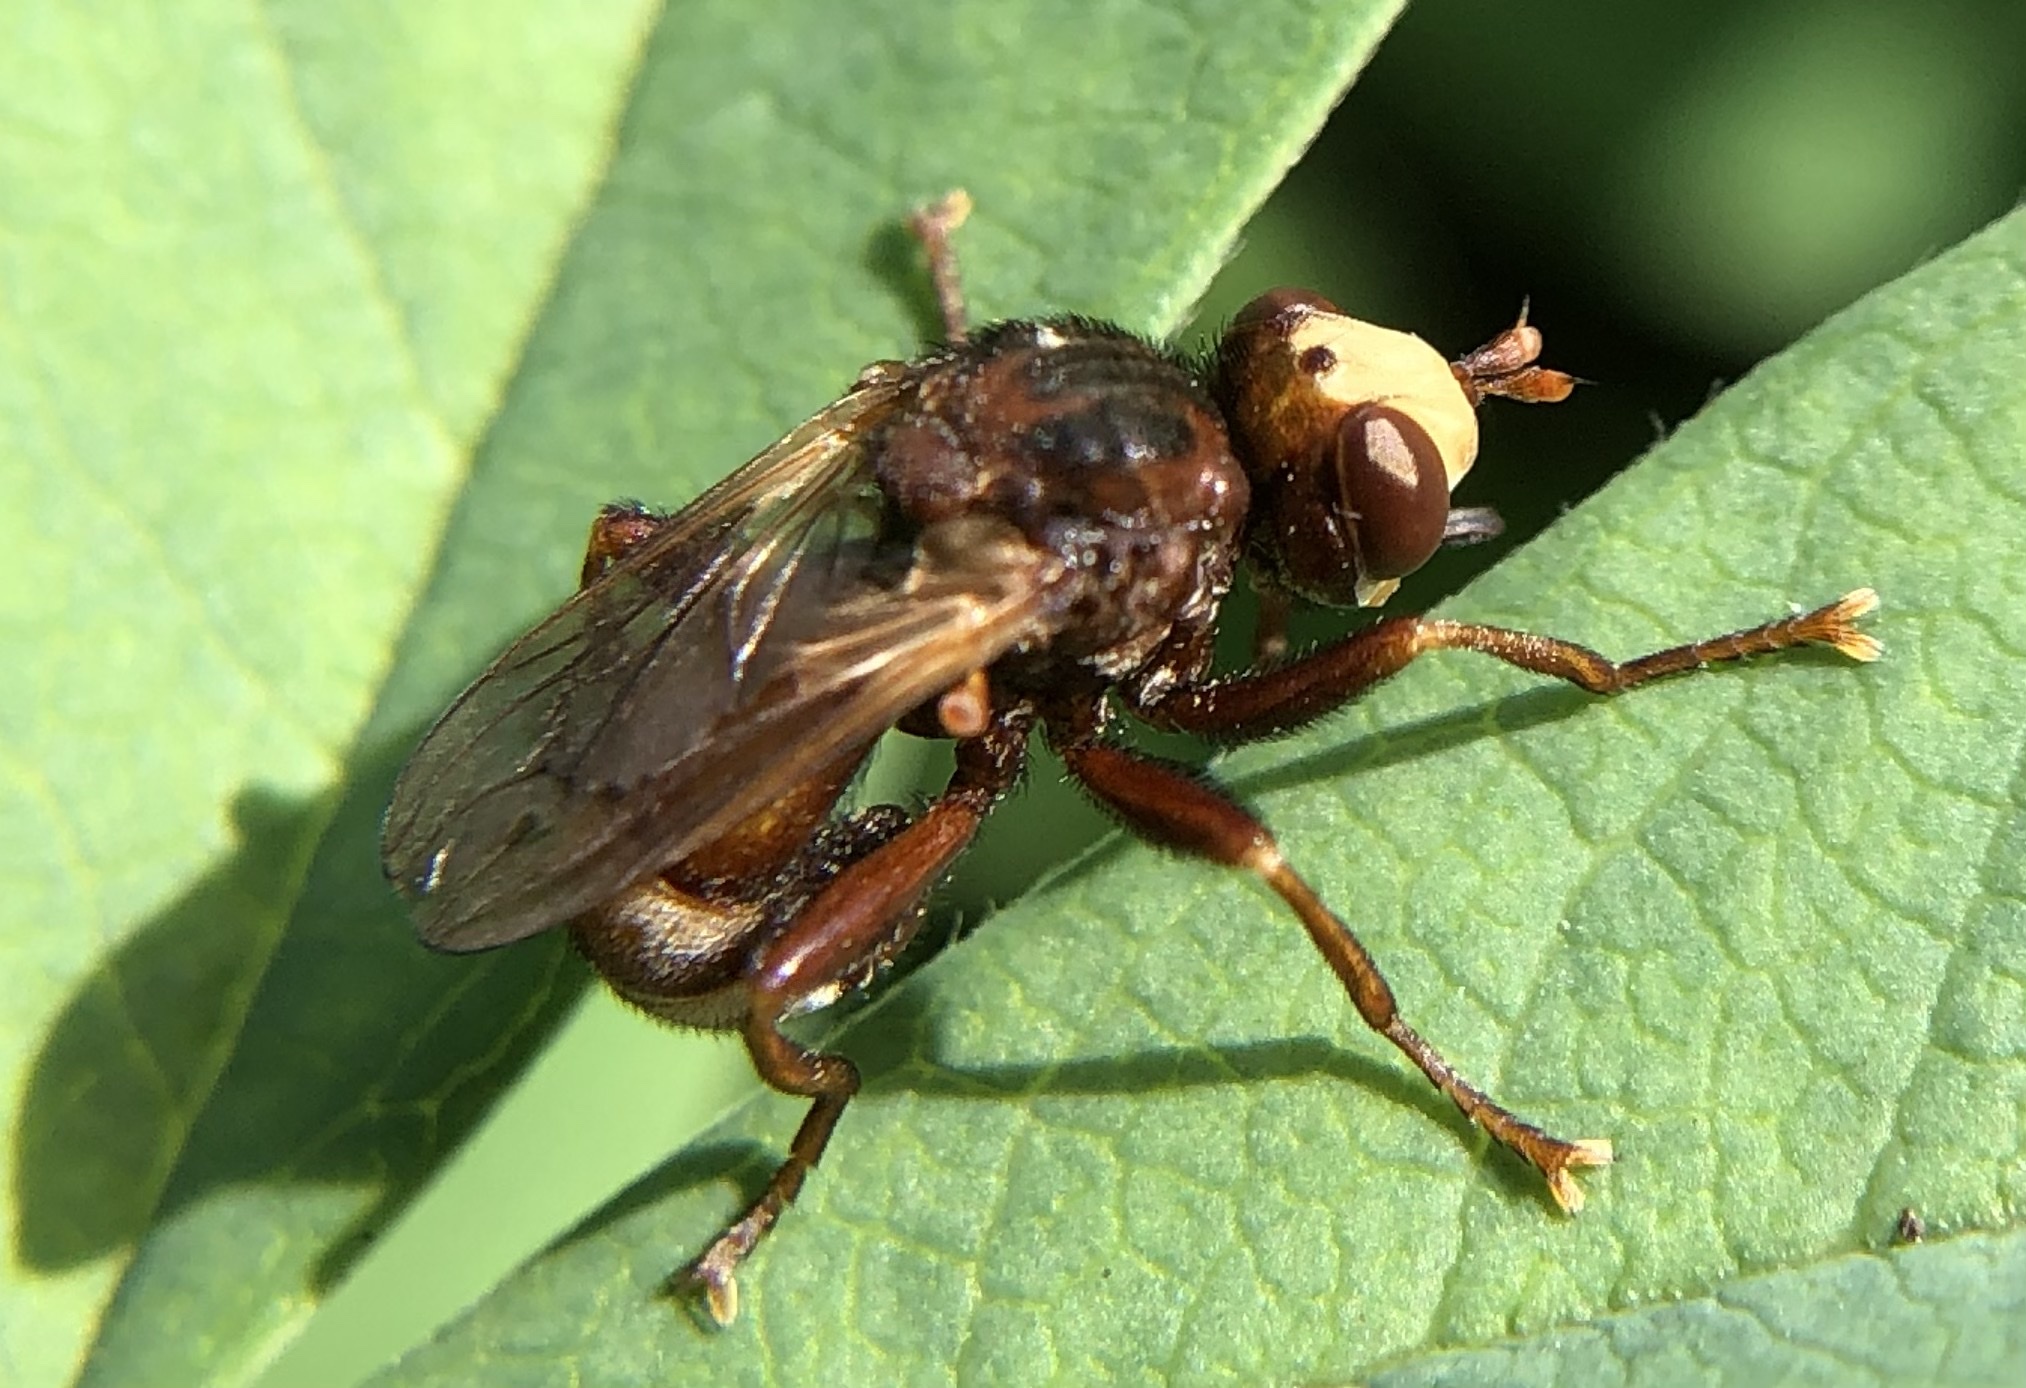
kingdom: Animalia
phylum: Arthropoda
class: Insecta
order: Diptera
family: Conopidae
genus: Sicus
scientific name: Sicus ferrugineus
